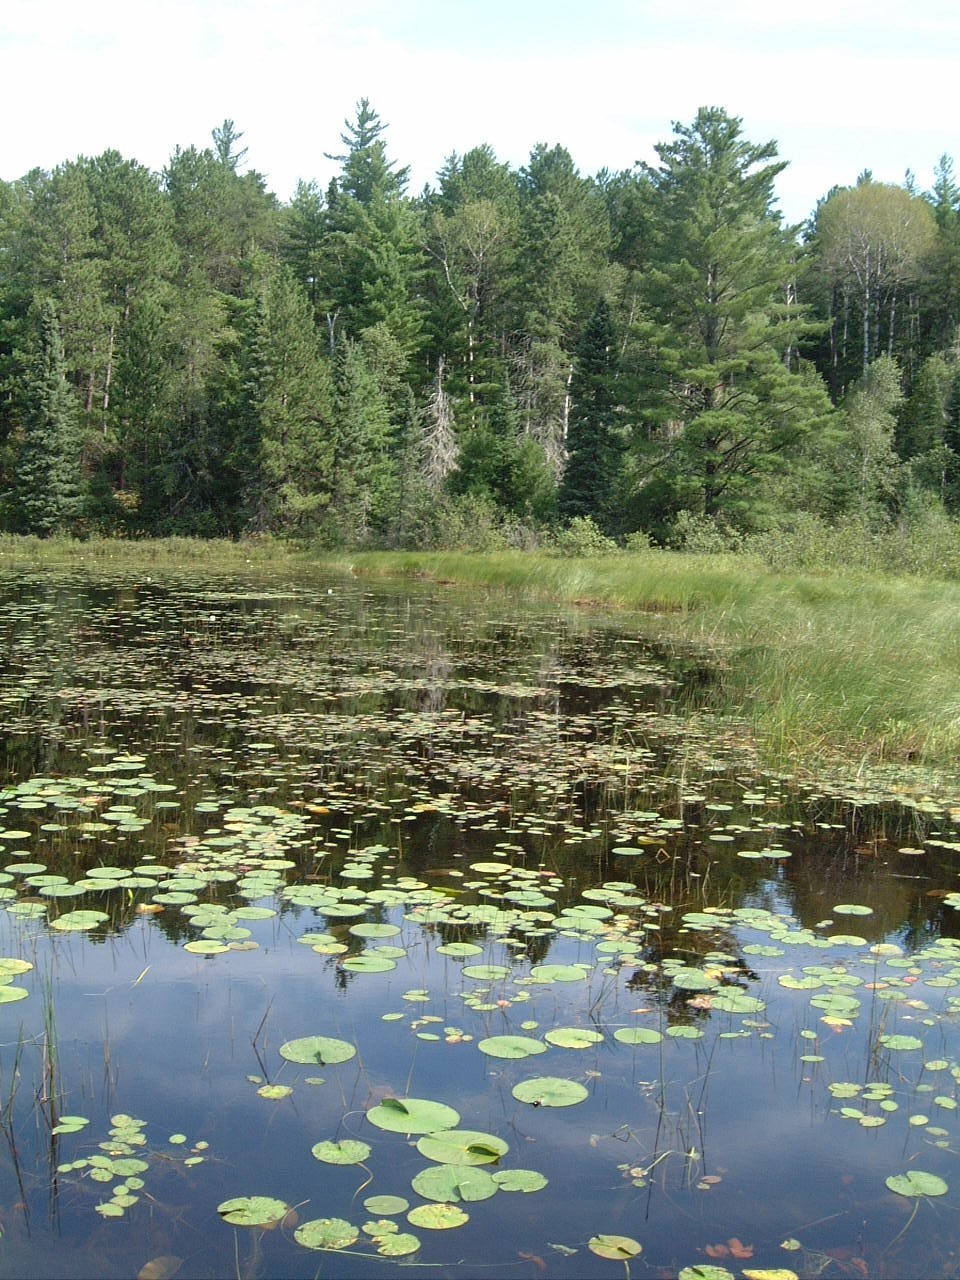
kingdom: Plantae
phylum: Tracheophyta
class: Magnoliopsida
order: Nymphaeales
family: Nymphaeaceae
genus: Nuphar
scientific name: Nuphar variegata
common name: Beaver-root
